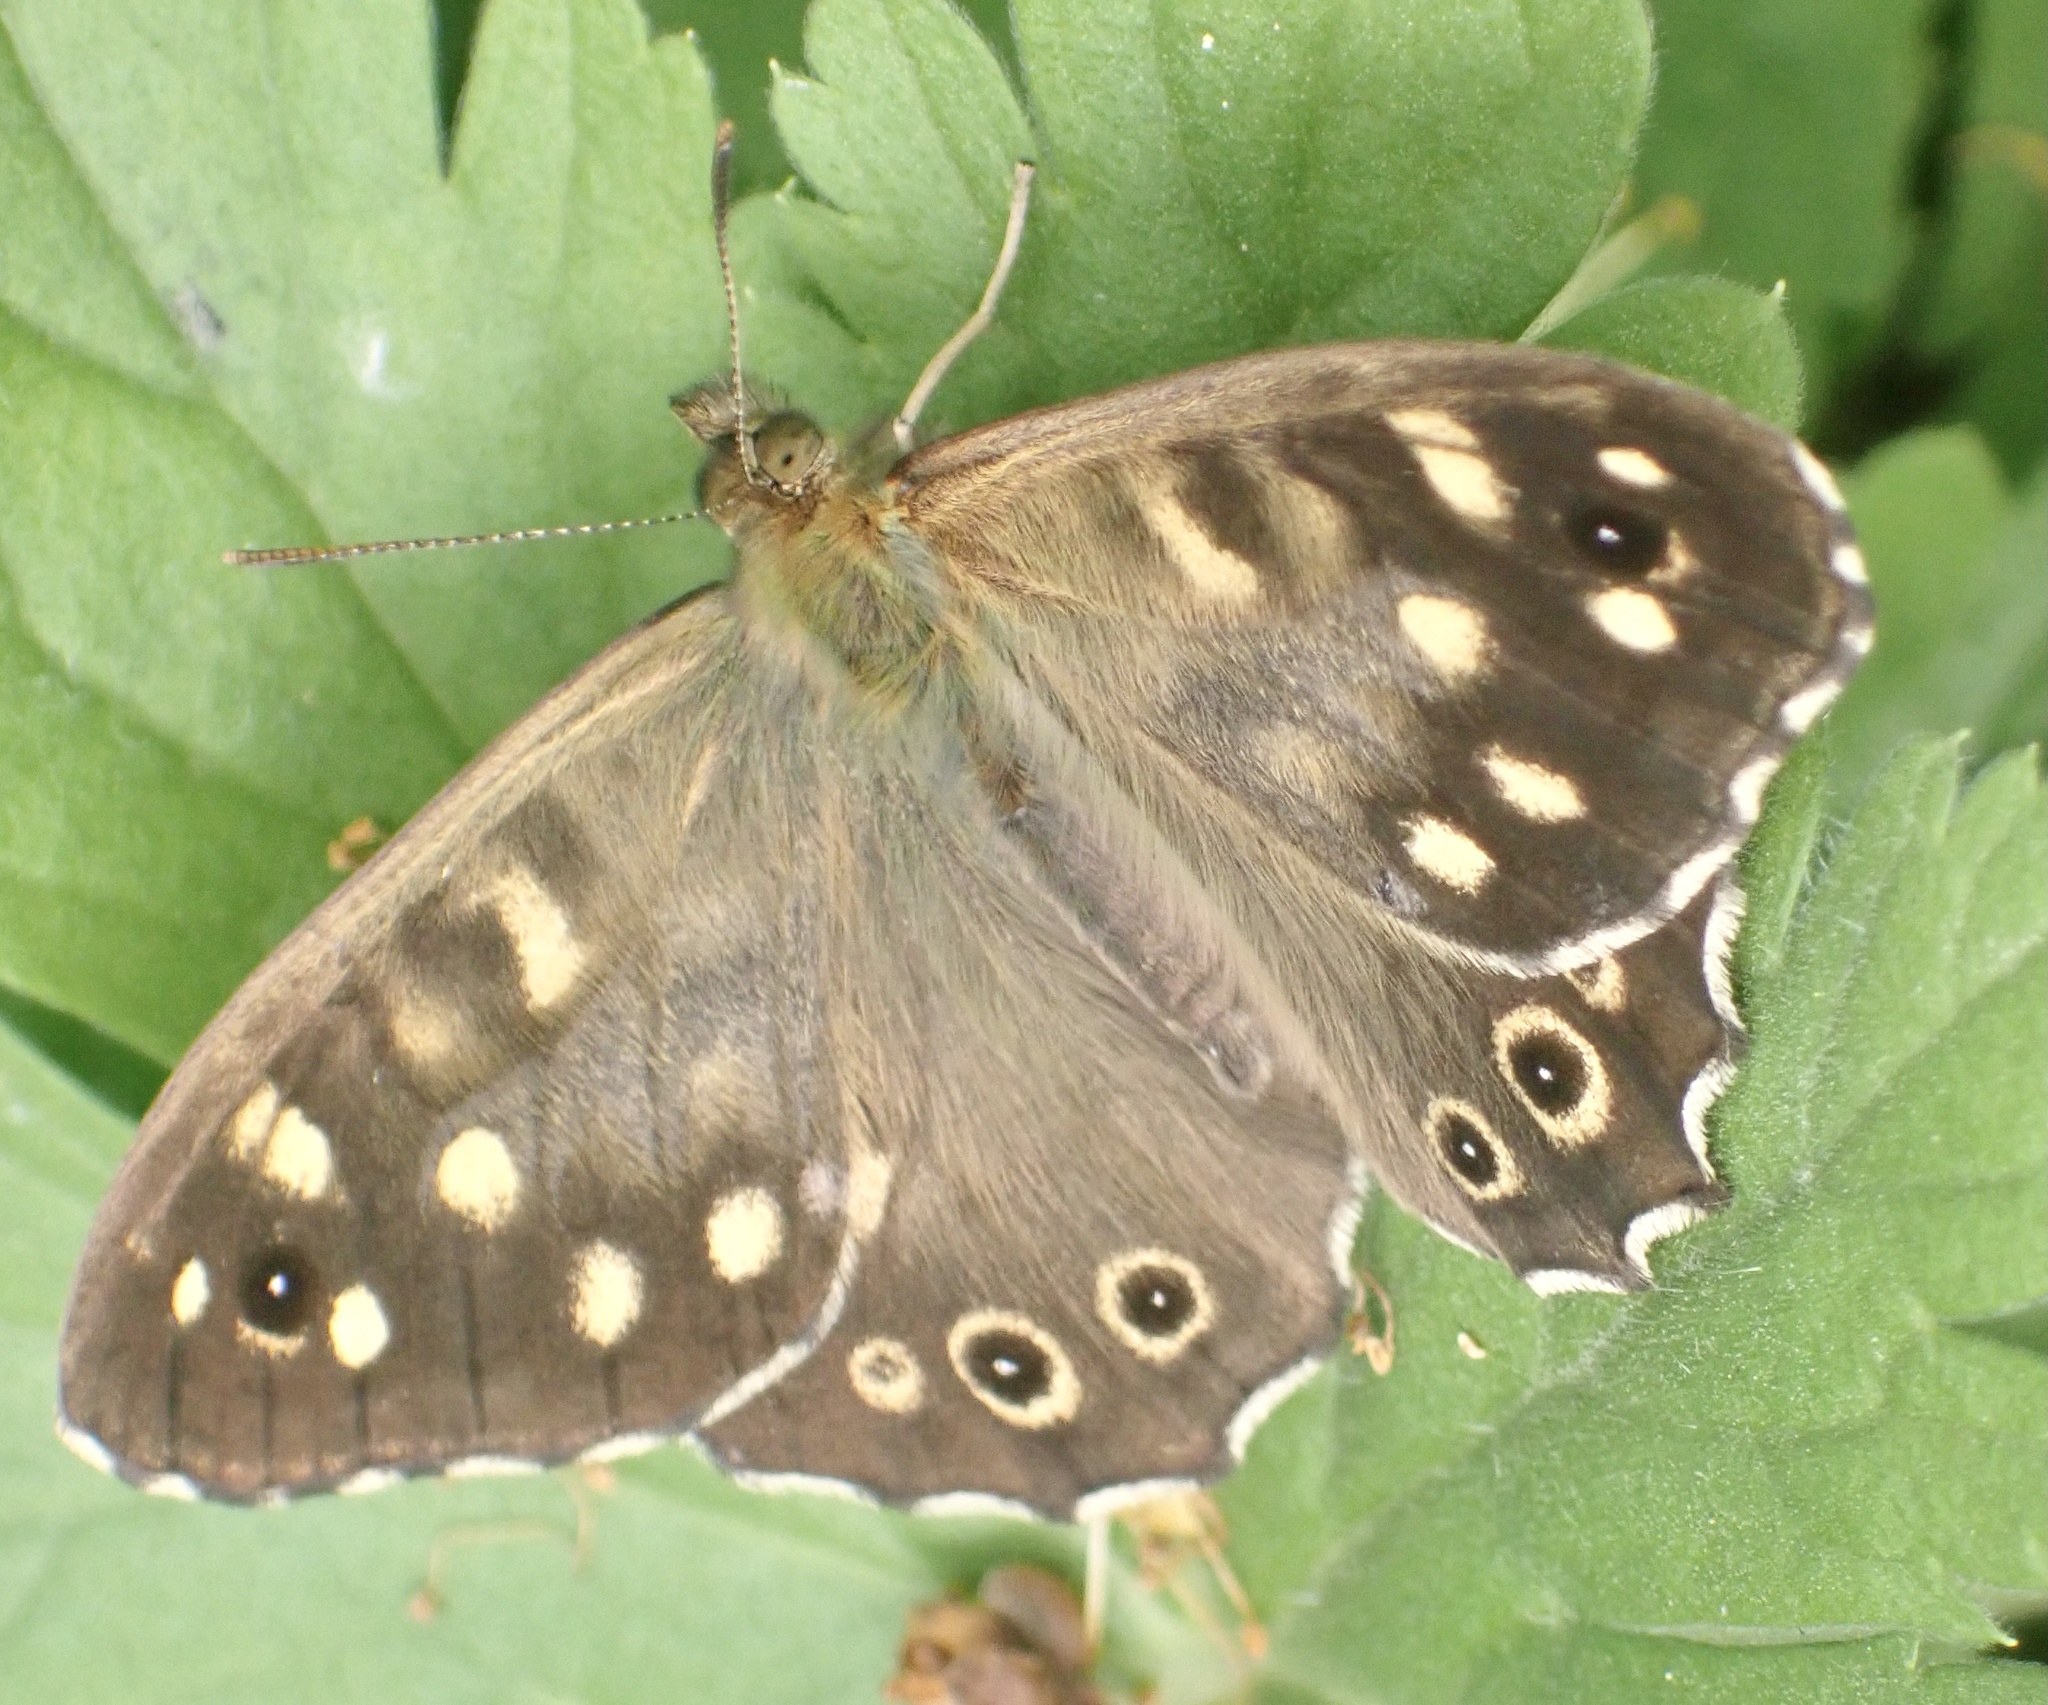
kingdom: Animalia
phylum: Arthropoda
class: Insecta
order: Lepidoptera
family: Nymphalidae
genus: Pararge
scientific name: Pararge aegeria
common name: Speckled wood
